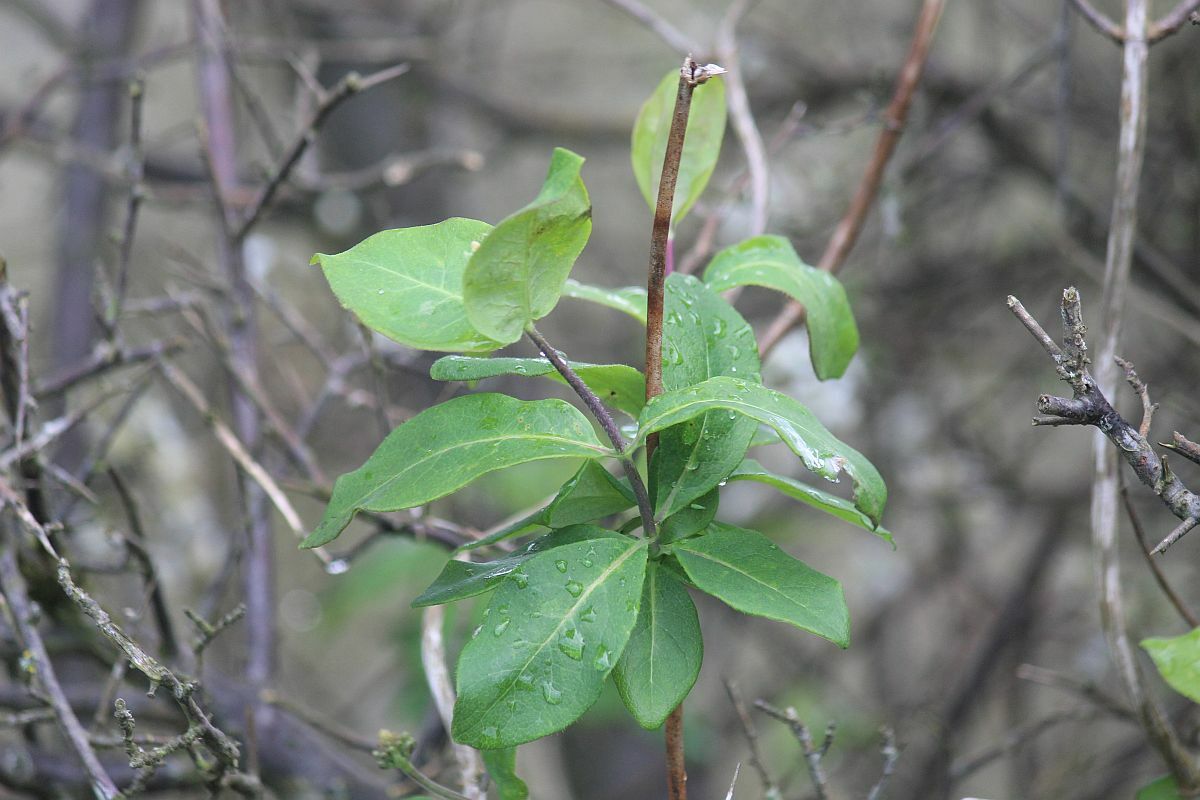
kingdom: Plantae
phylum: Tracheophyta
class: Magnoliopsida
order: Dipsacales
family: Caprifoliaceae
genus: Lonicera
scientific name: Lonicera periclymenum
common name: European honeysuckle
